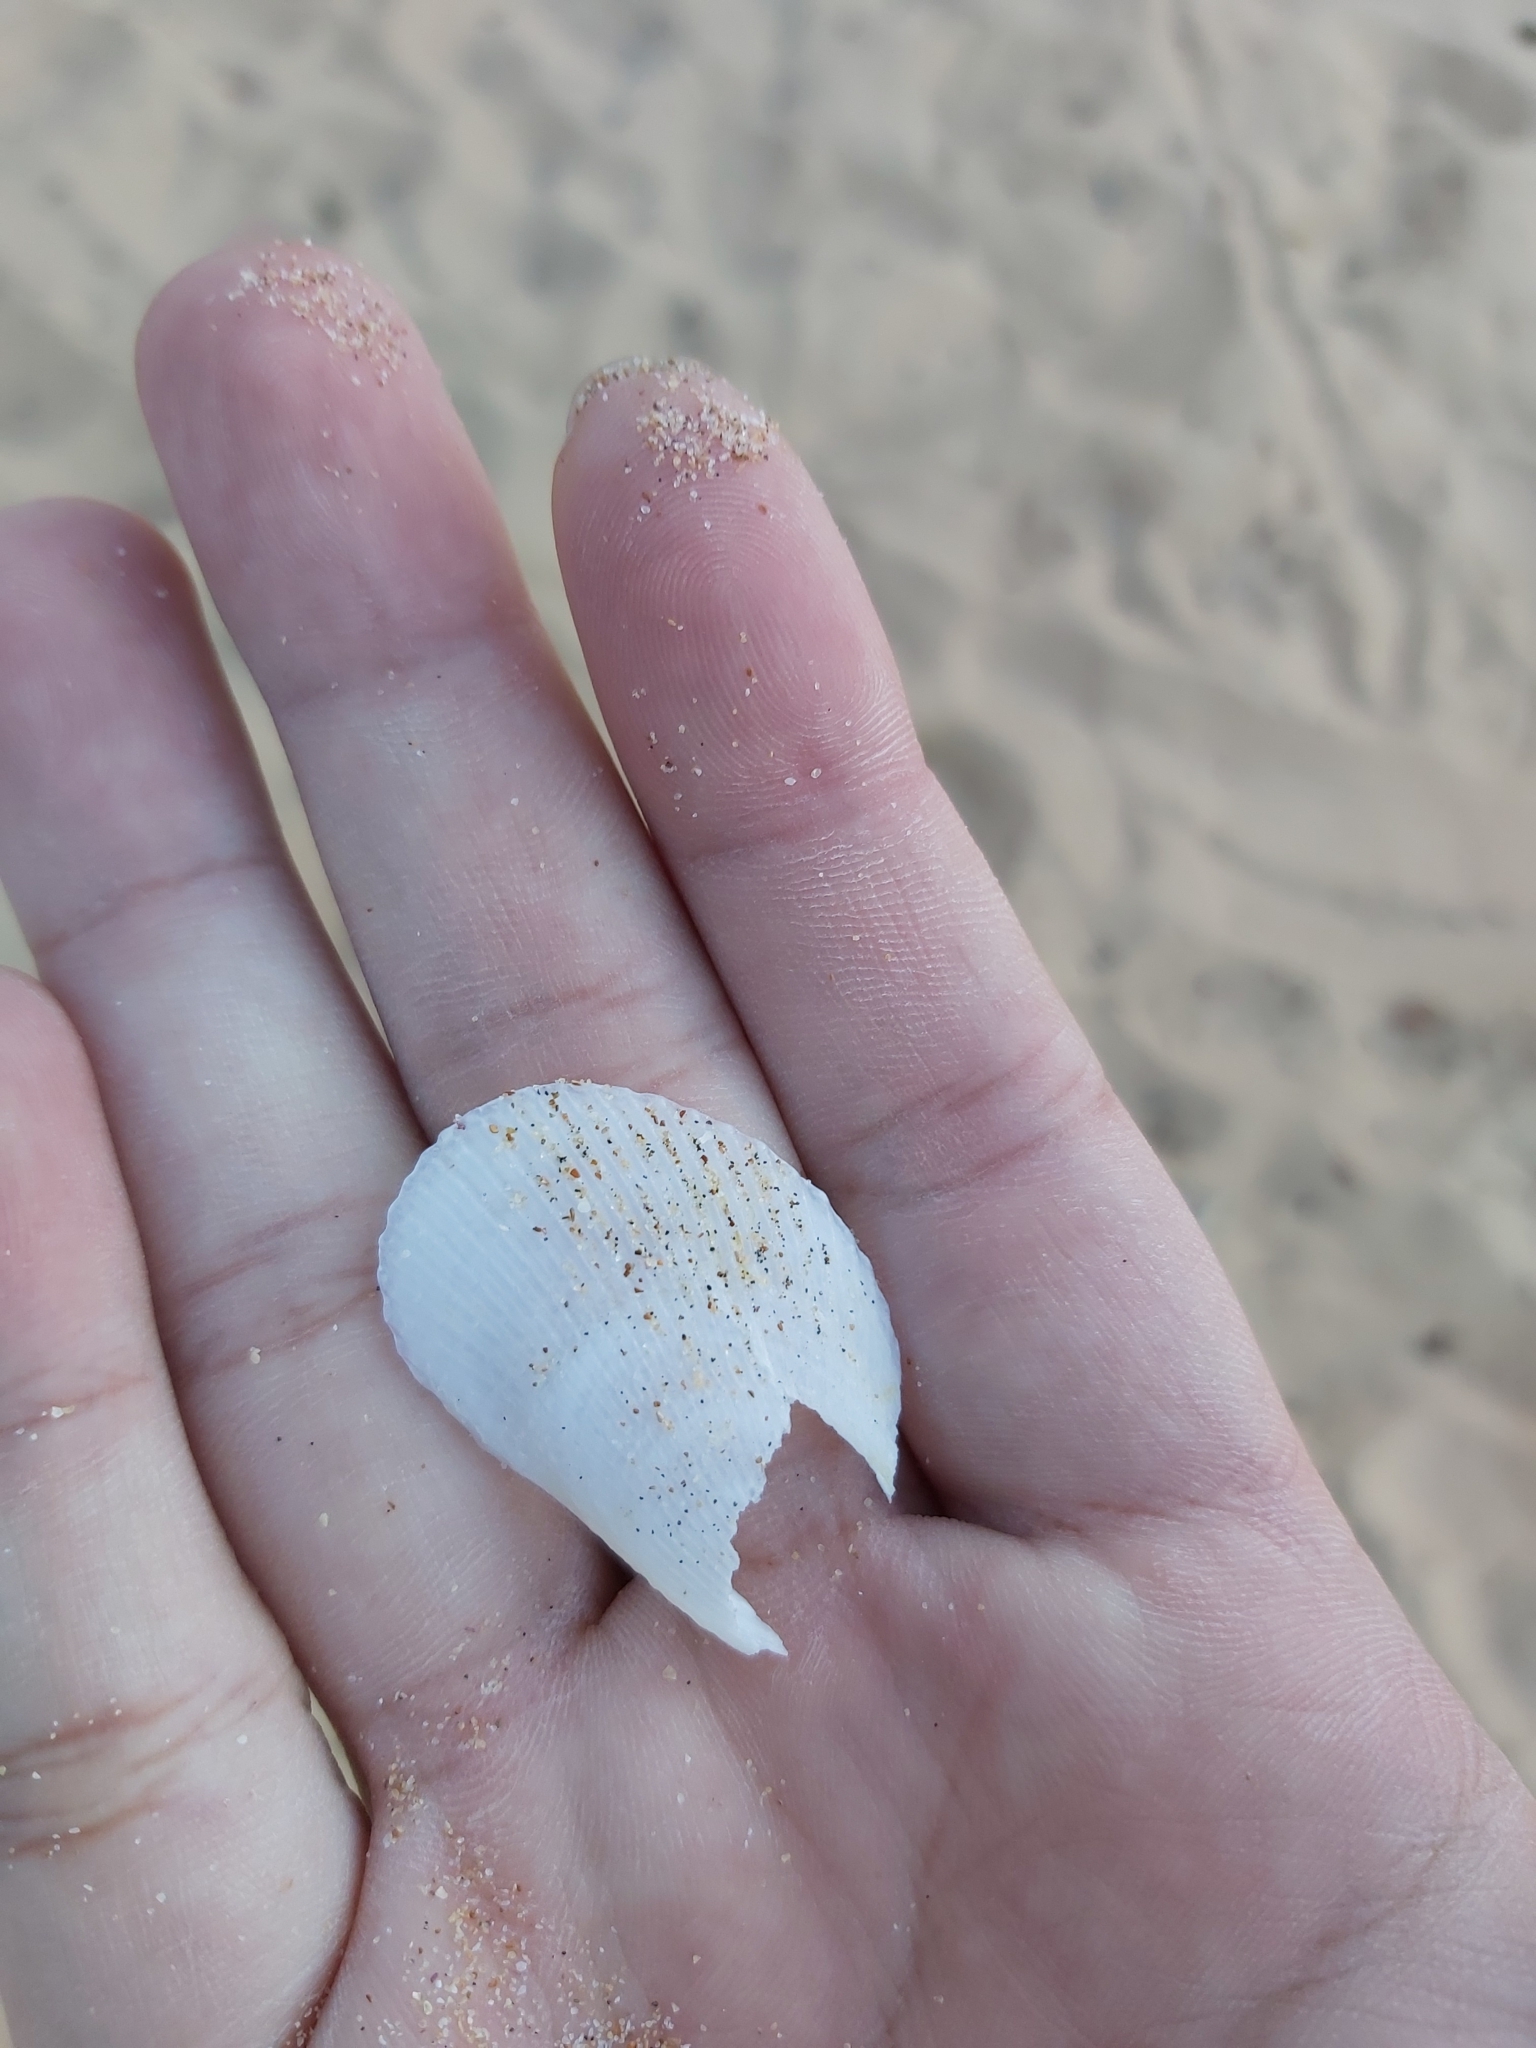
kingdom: Animalia
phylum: Mollusca
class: Bivalvia
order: Limida
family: Limidae
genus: Lima
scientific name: Lima nimbifer
